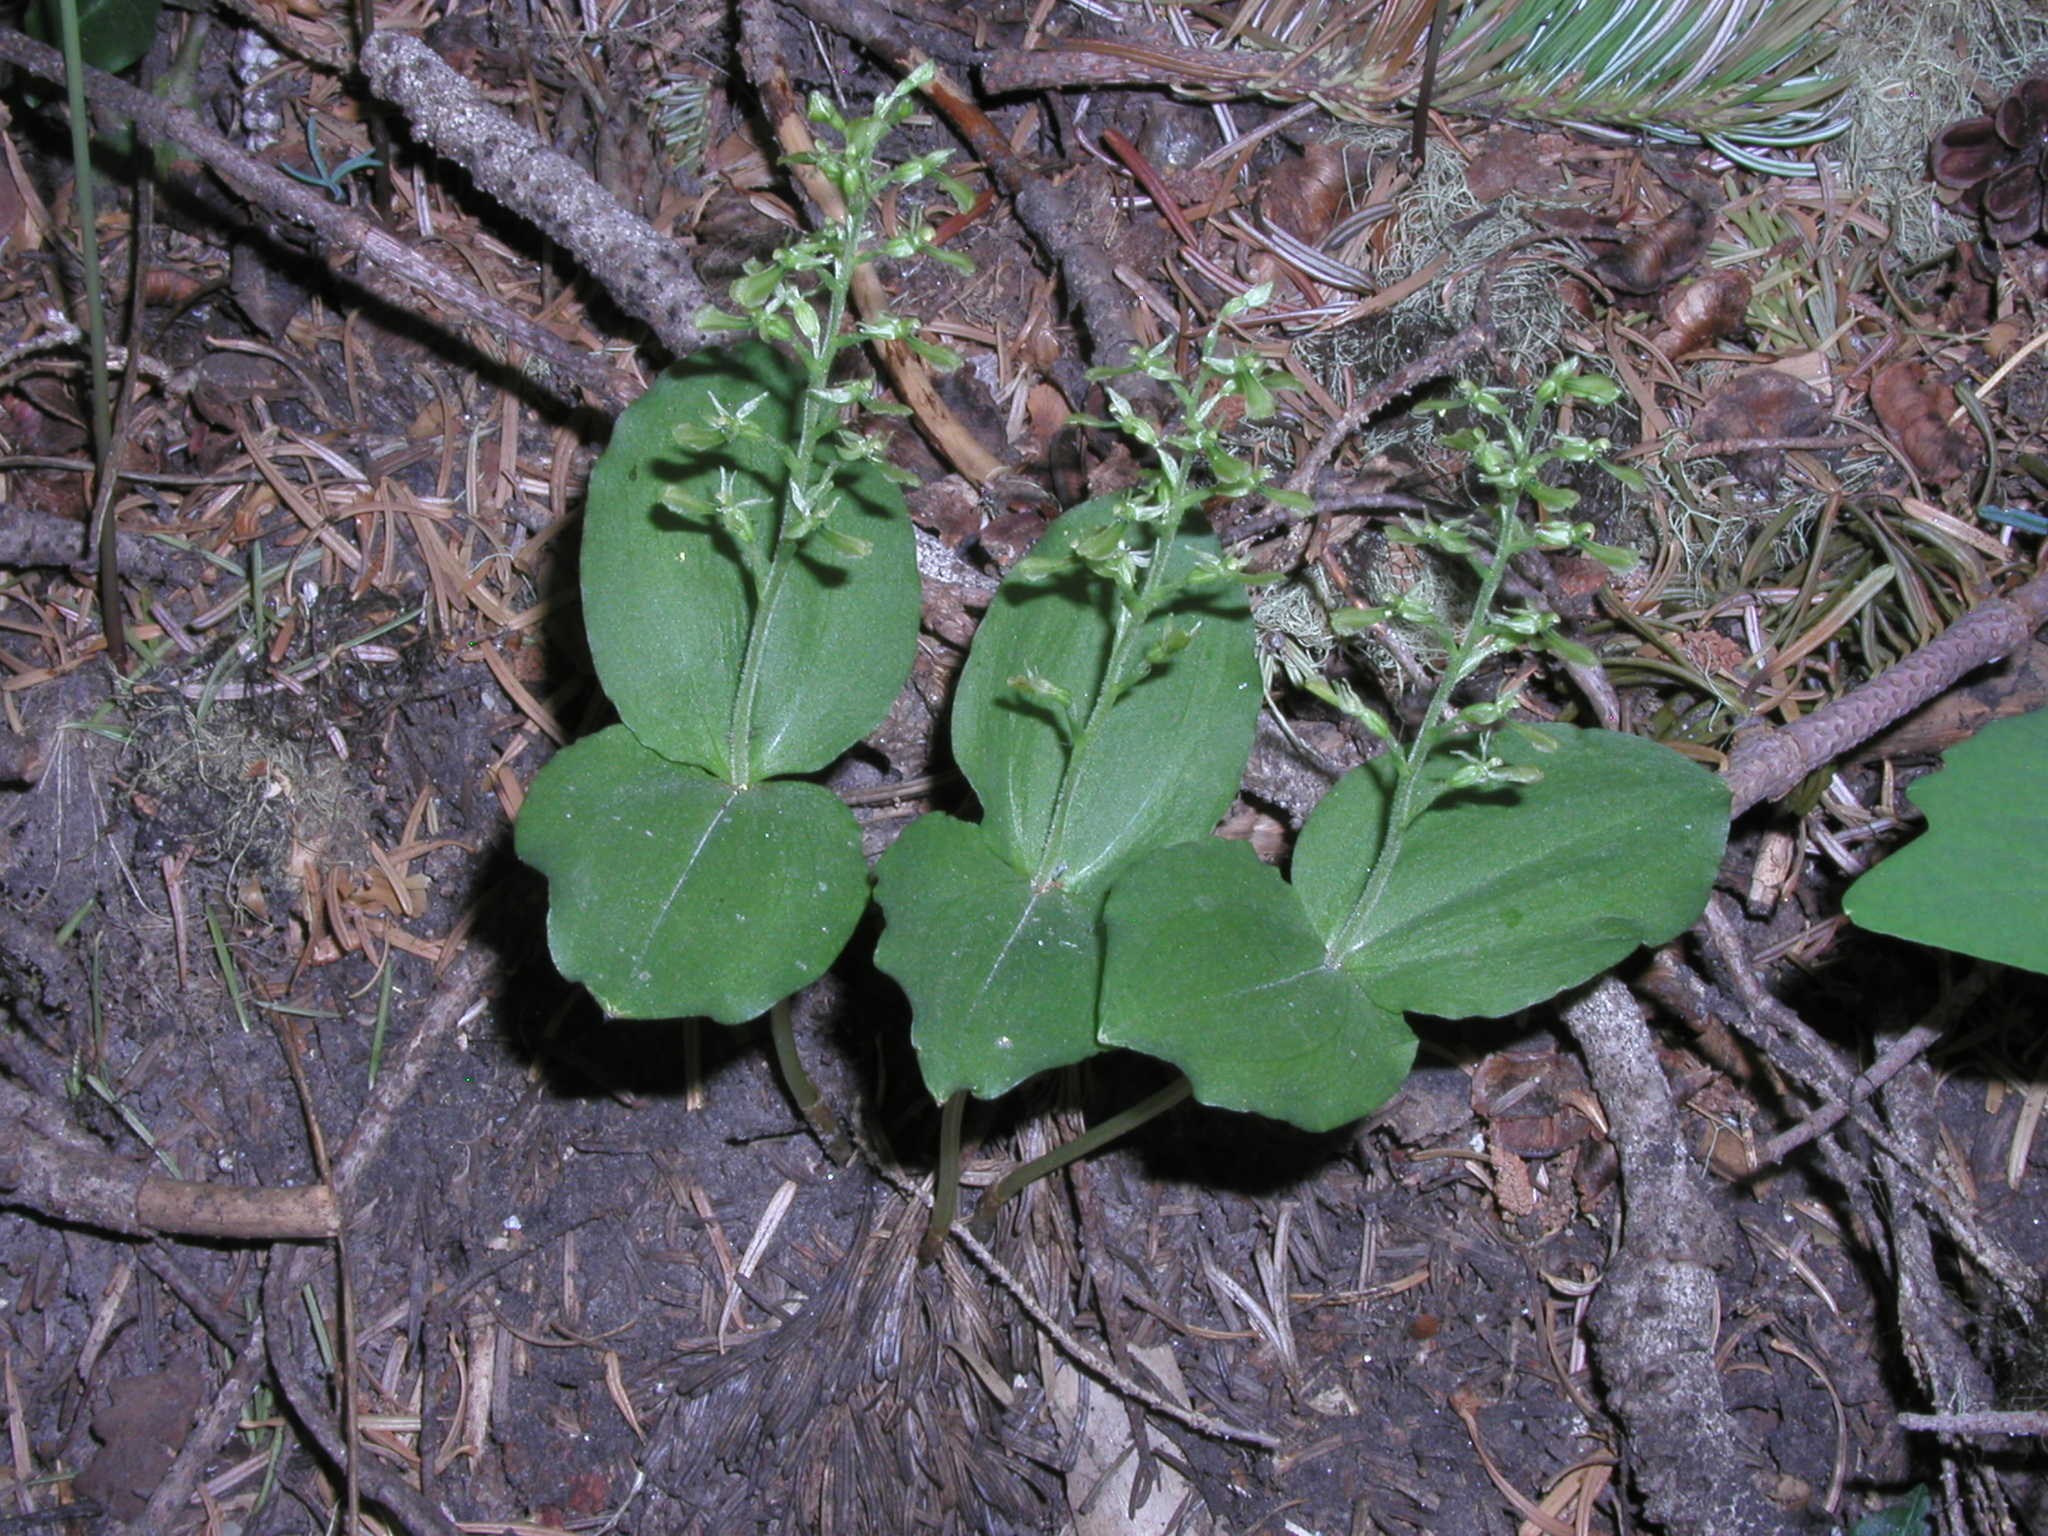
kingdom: Plantae
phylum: Tracheophyta
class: Liliopsida
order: Asparagales
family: Orchidaceae
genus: Neottia
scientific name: Neottia banksiana
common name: Northwestern twayblade
